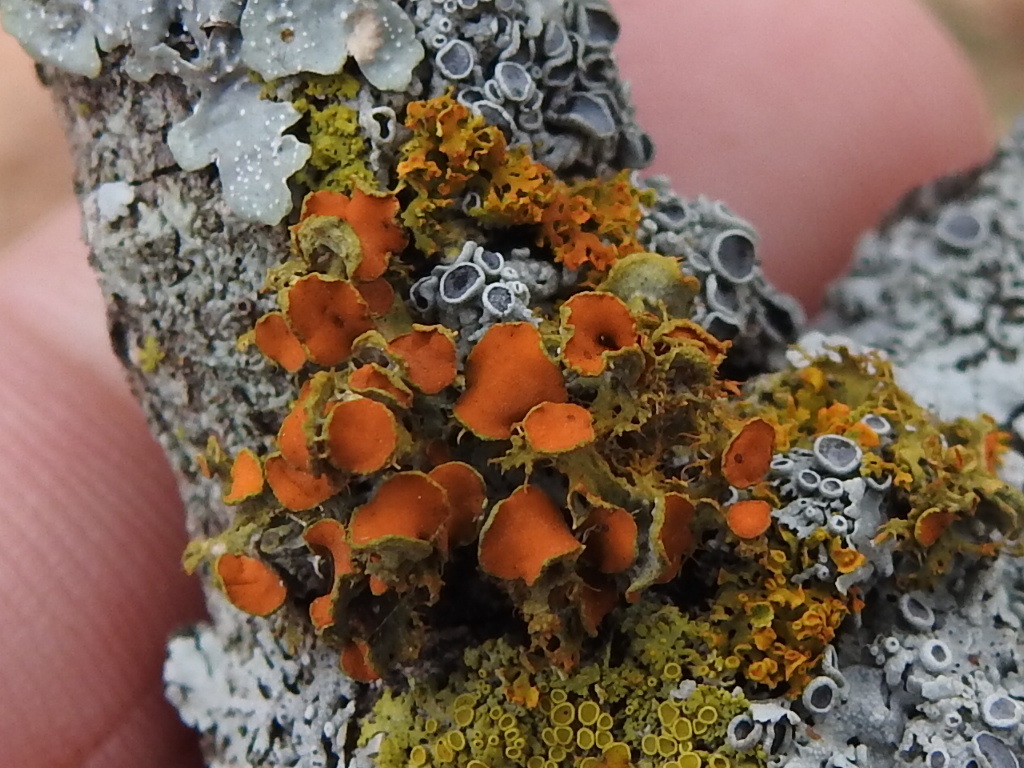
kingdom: Fungi
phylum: Ascomycota
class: Lecanoromycetes
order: Teloschistales
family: Teloschistaceae
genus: Niorma
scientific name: Niorma chrysophthalma
